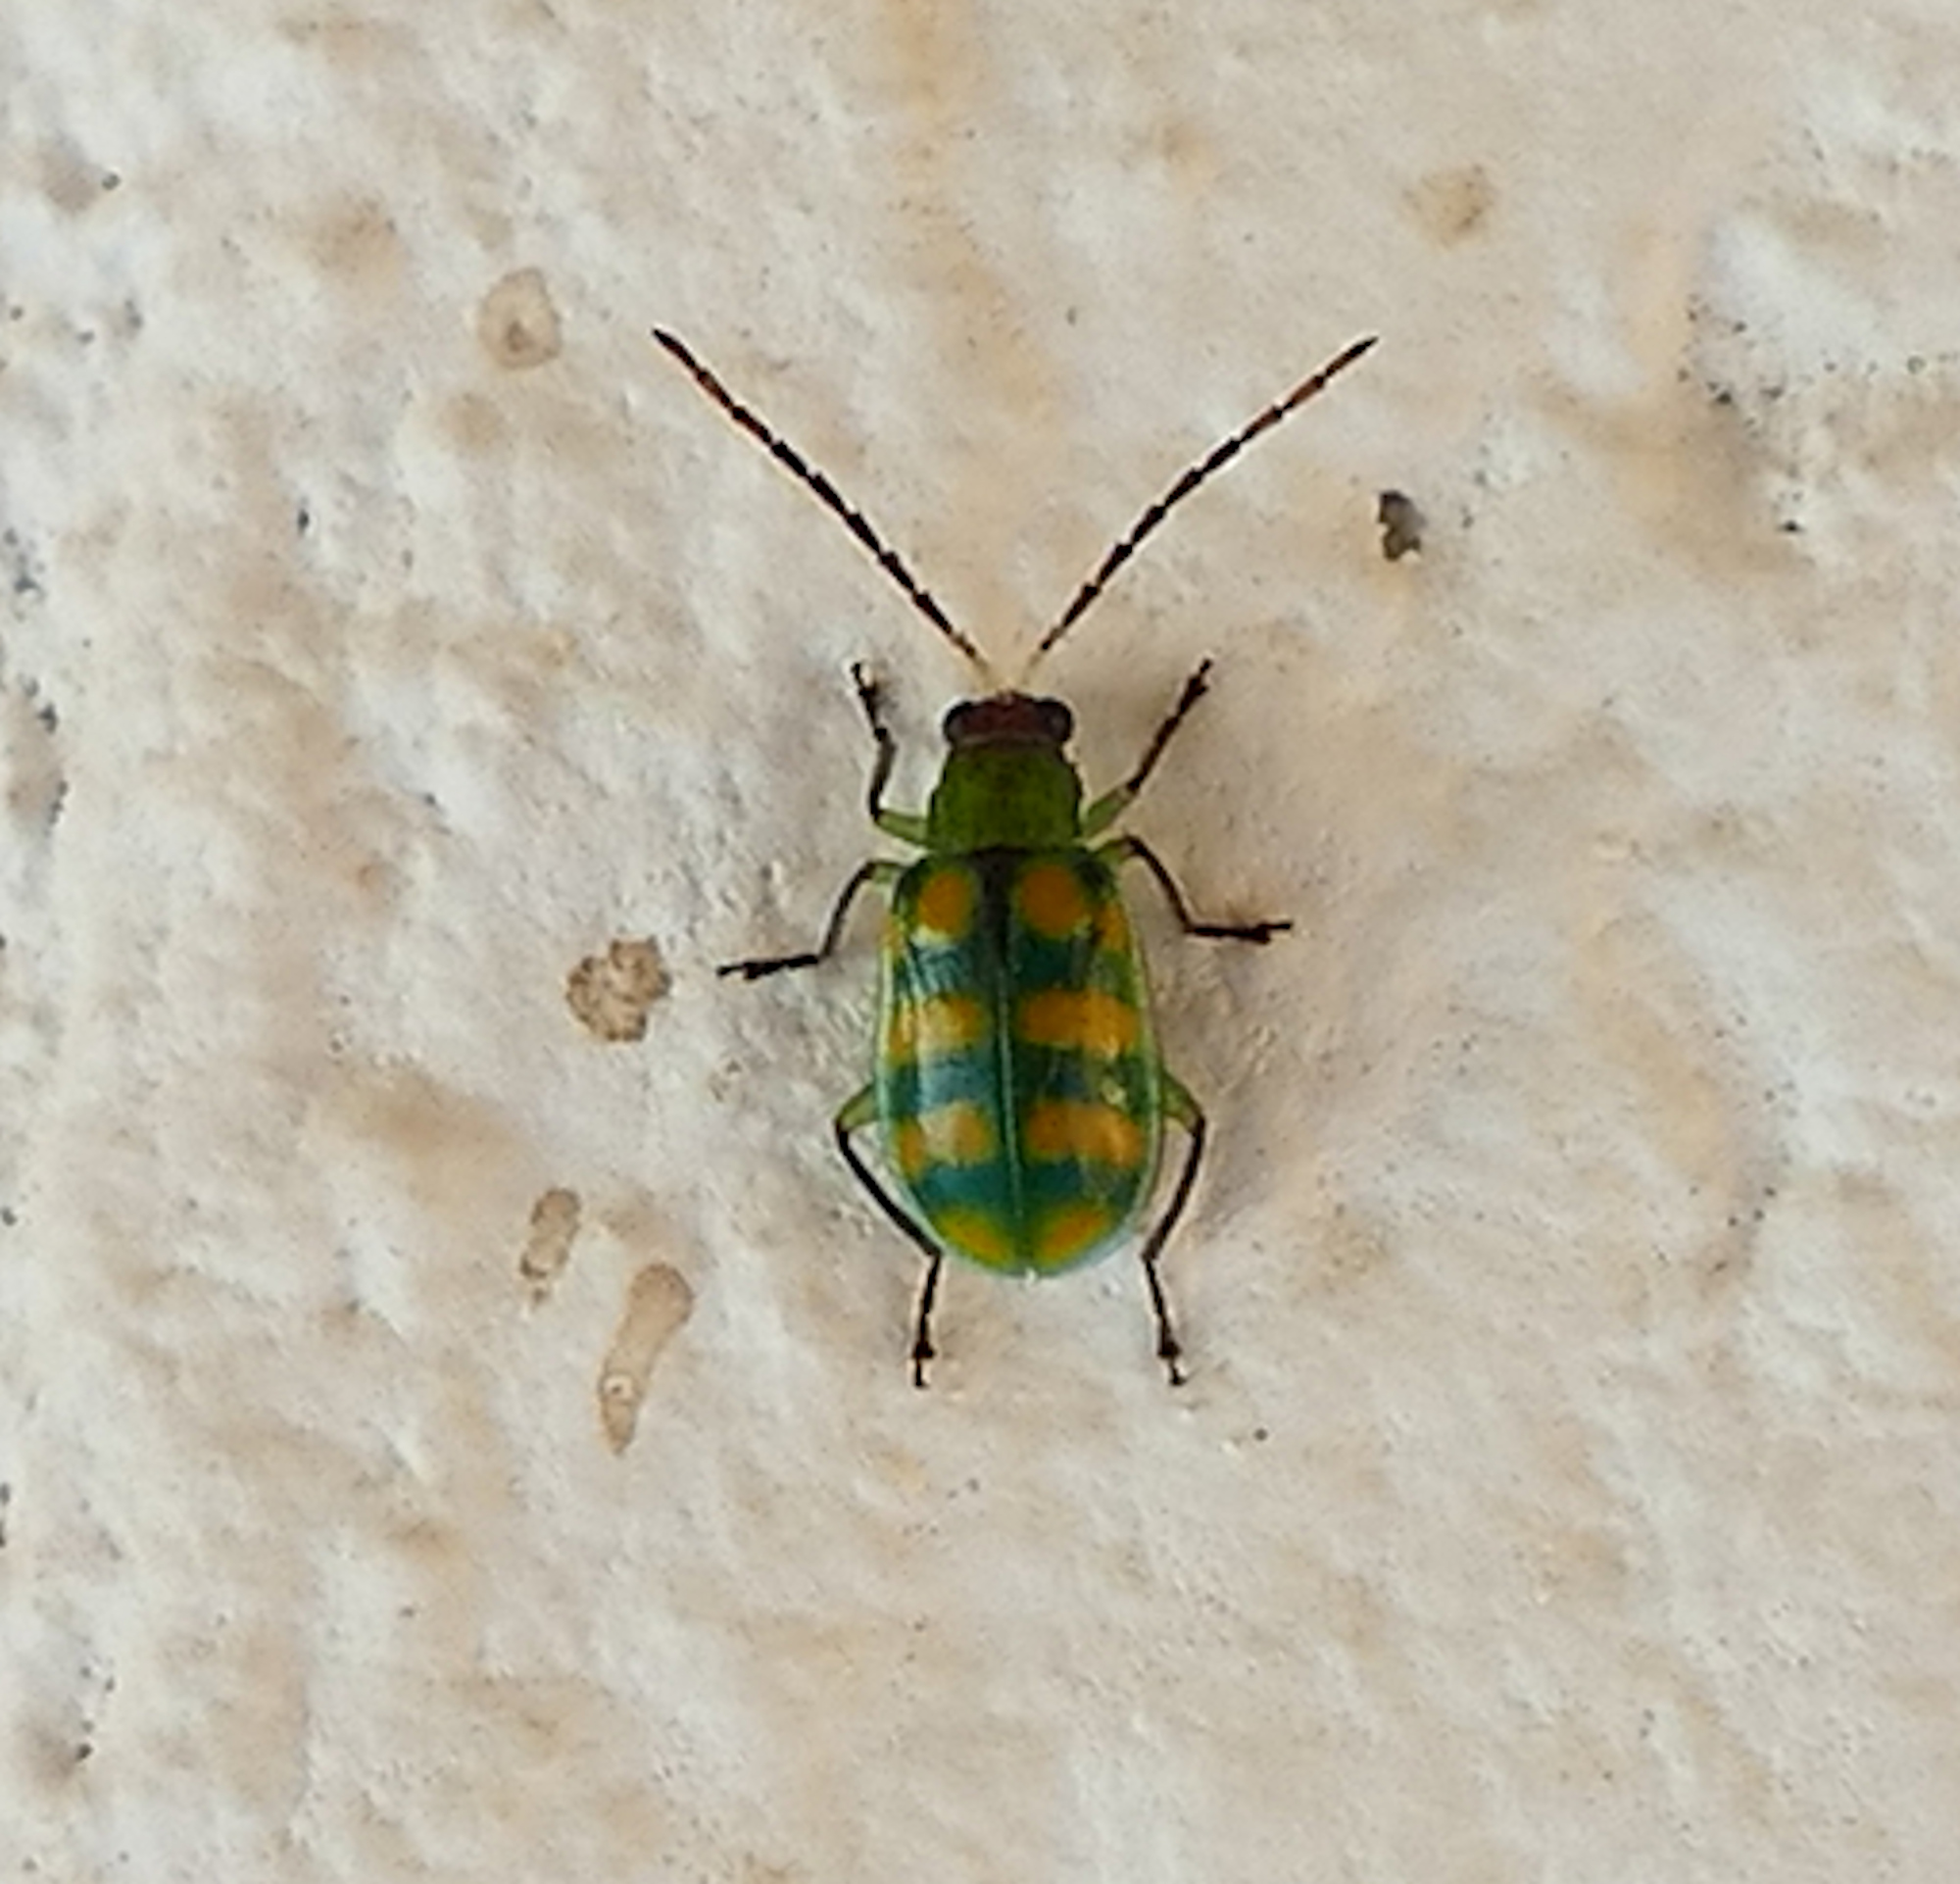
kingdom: Animalia
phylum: Arthropoda
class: Insecta
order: Coleoptera
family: Chrysomelidae
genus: Diabrotica
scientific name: Diabrotica balteata
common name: Leaf beetle
